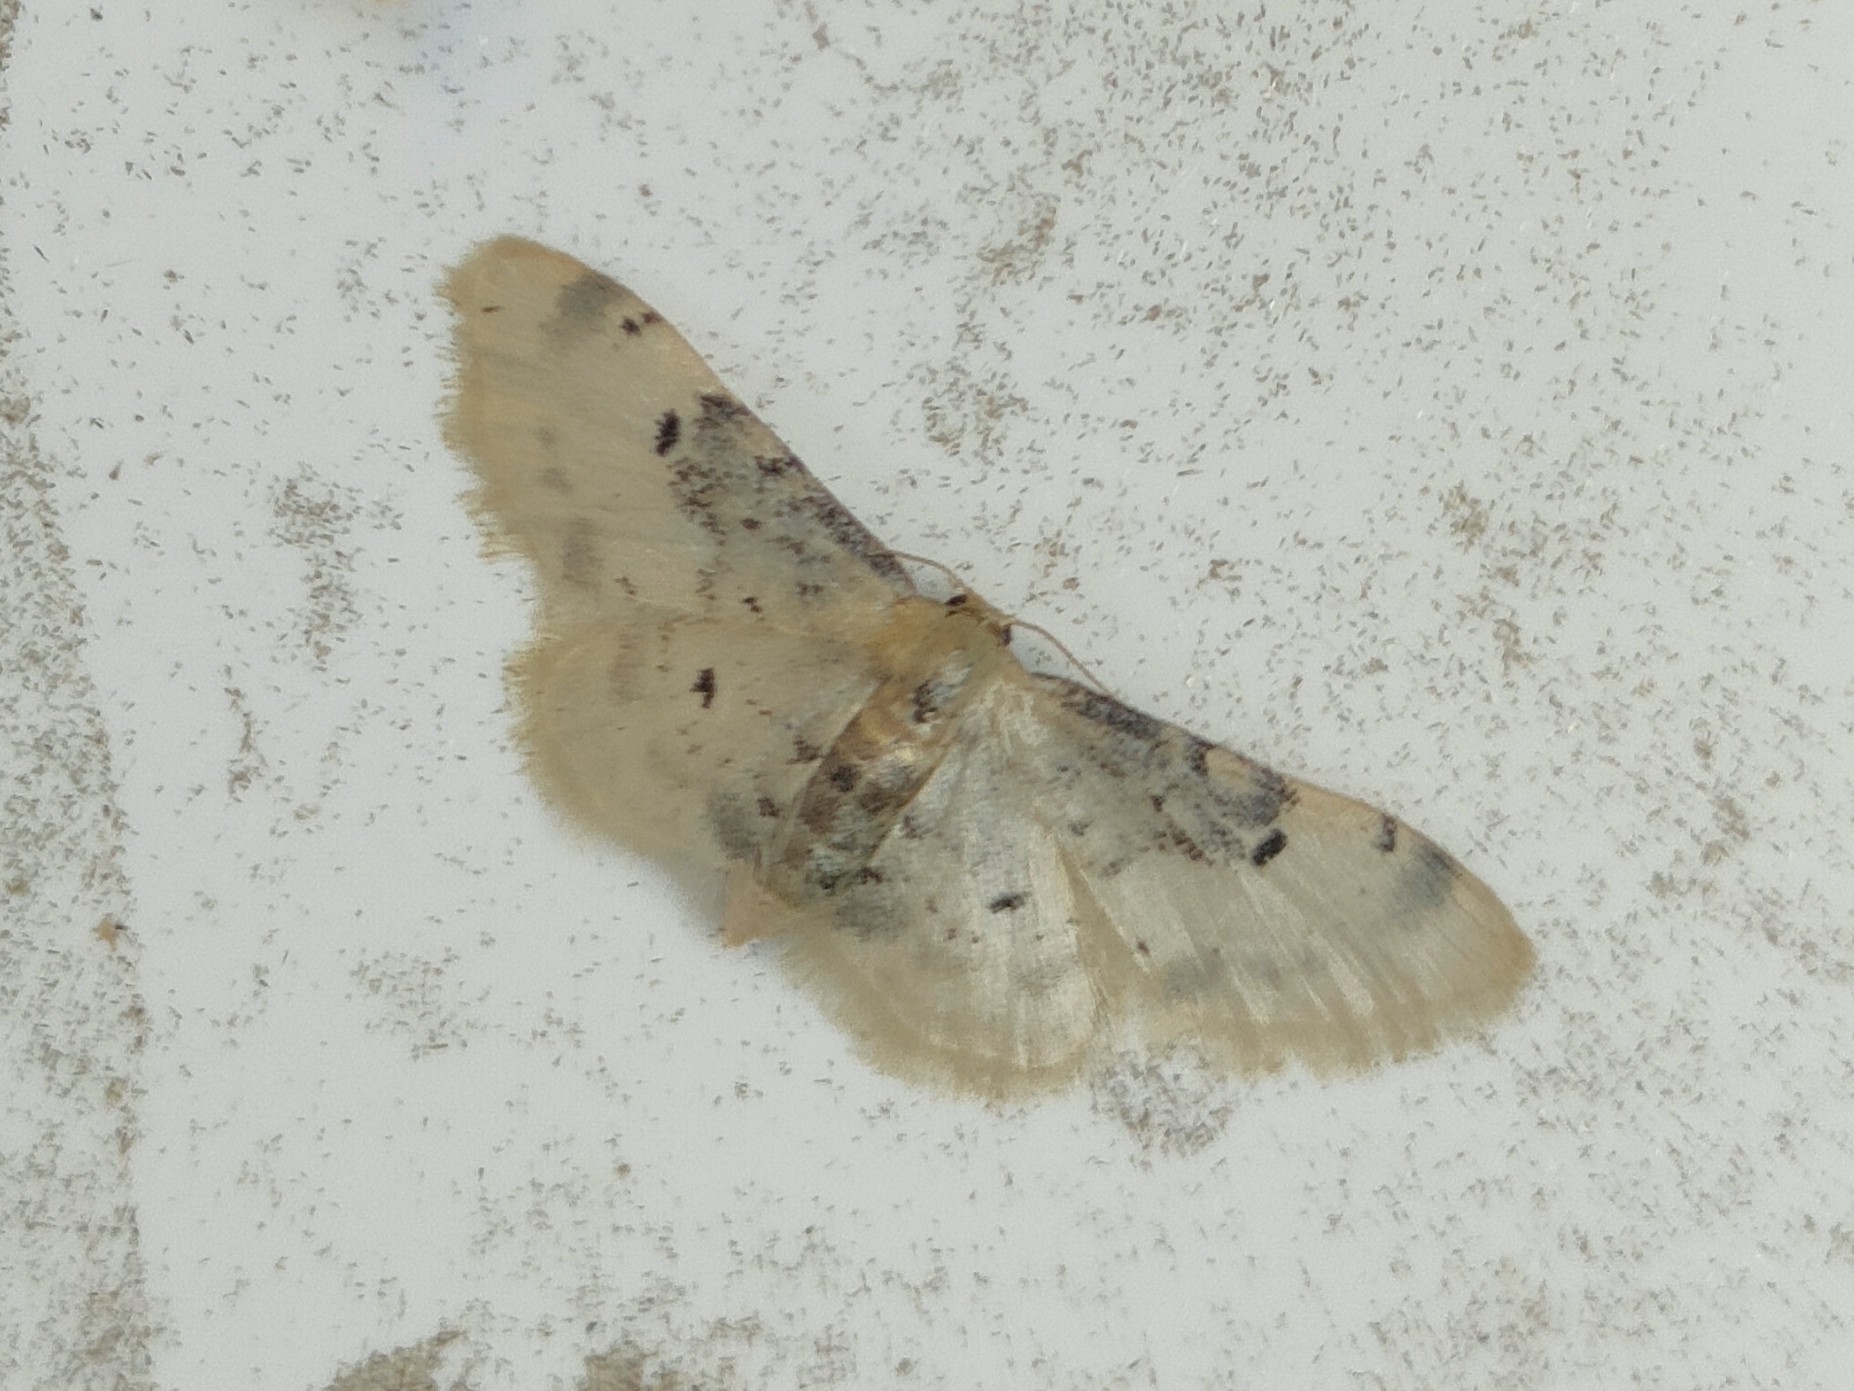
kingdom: Animalia
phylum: Arthropoda
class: Insecta
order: Lepidoptera
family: Geometridae
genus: Idaea
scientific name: Idaea filicata
